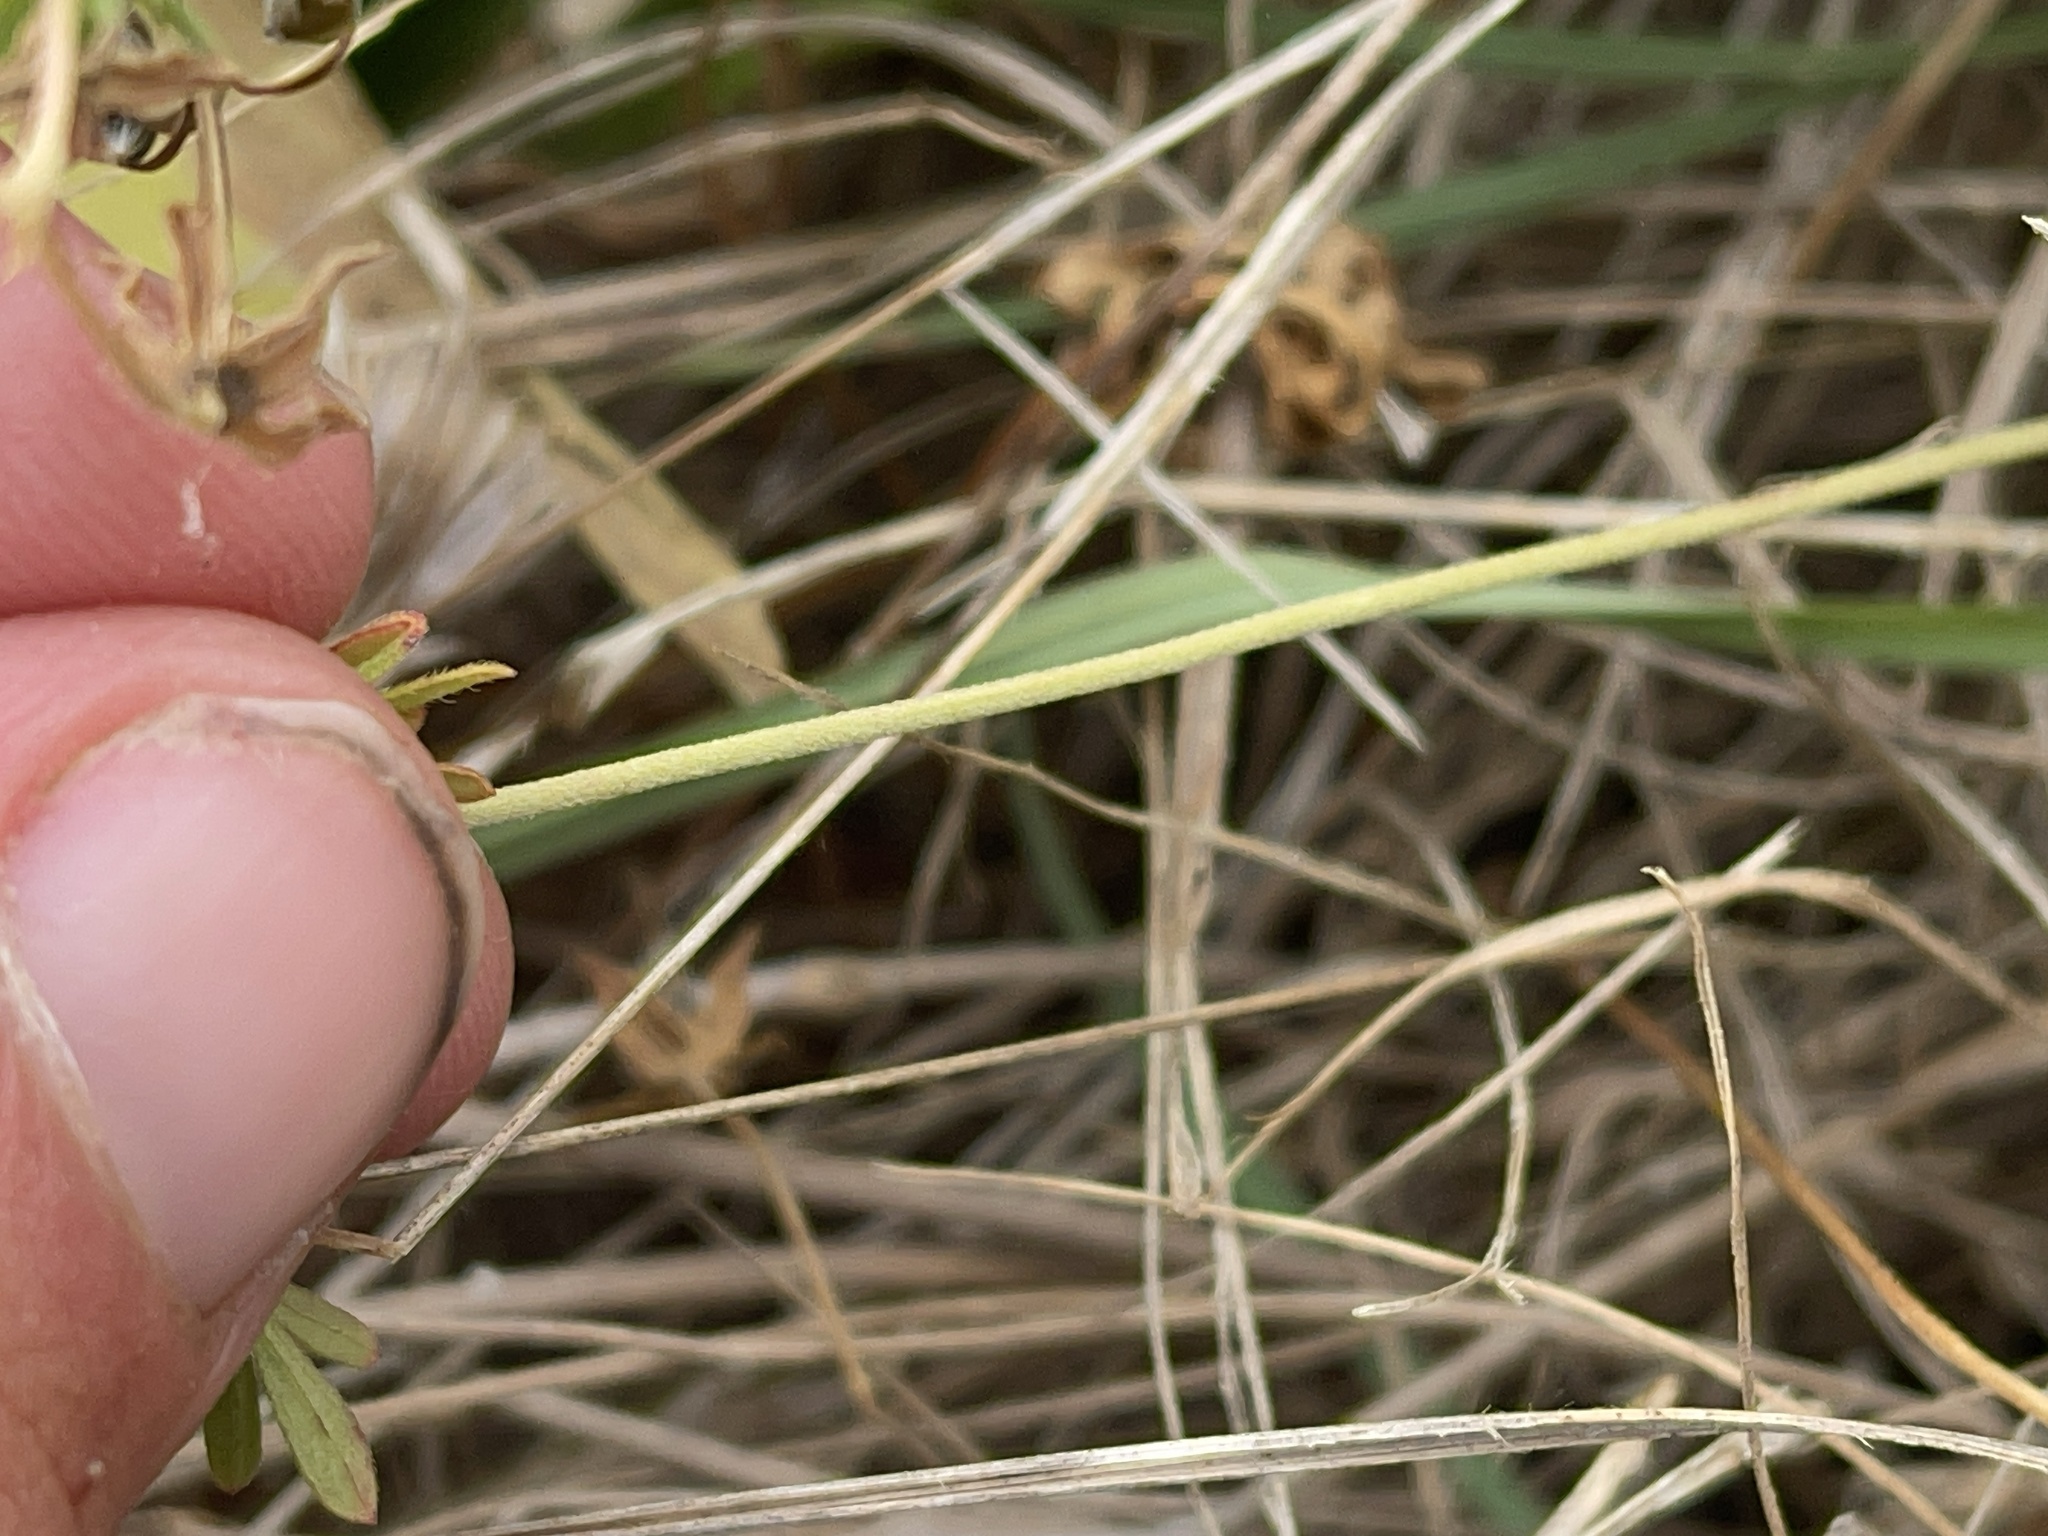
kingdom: Plantae
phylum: Tracheophyta
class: Magnoliopsida
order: Geraniales
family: Geraniaceae
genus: Geranium
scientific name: Geranium retrorsum
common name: New zealand geranium
